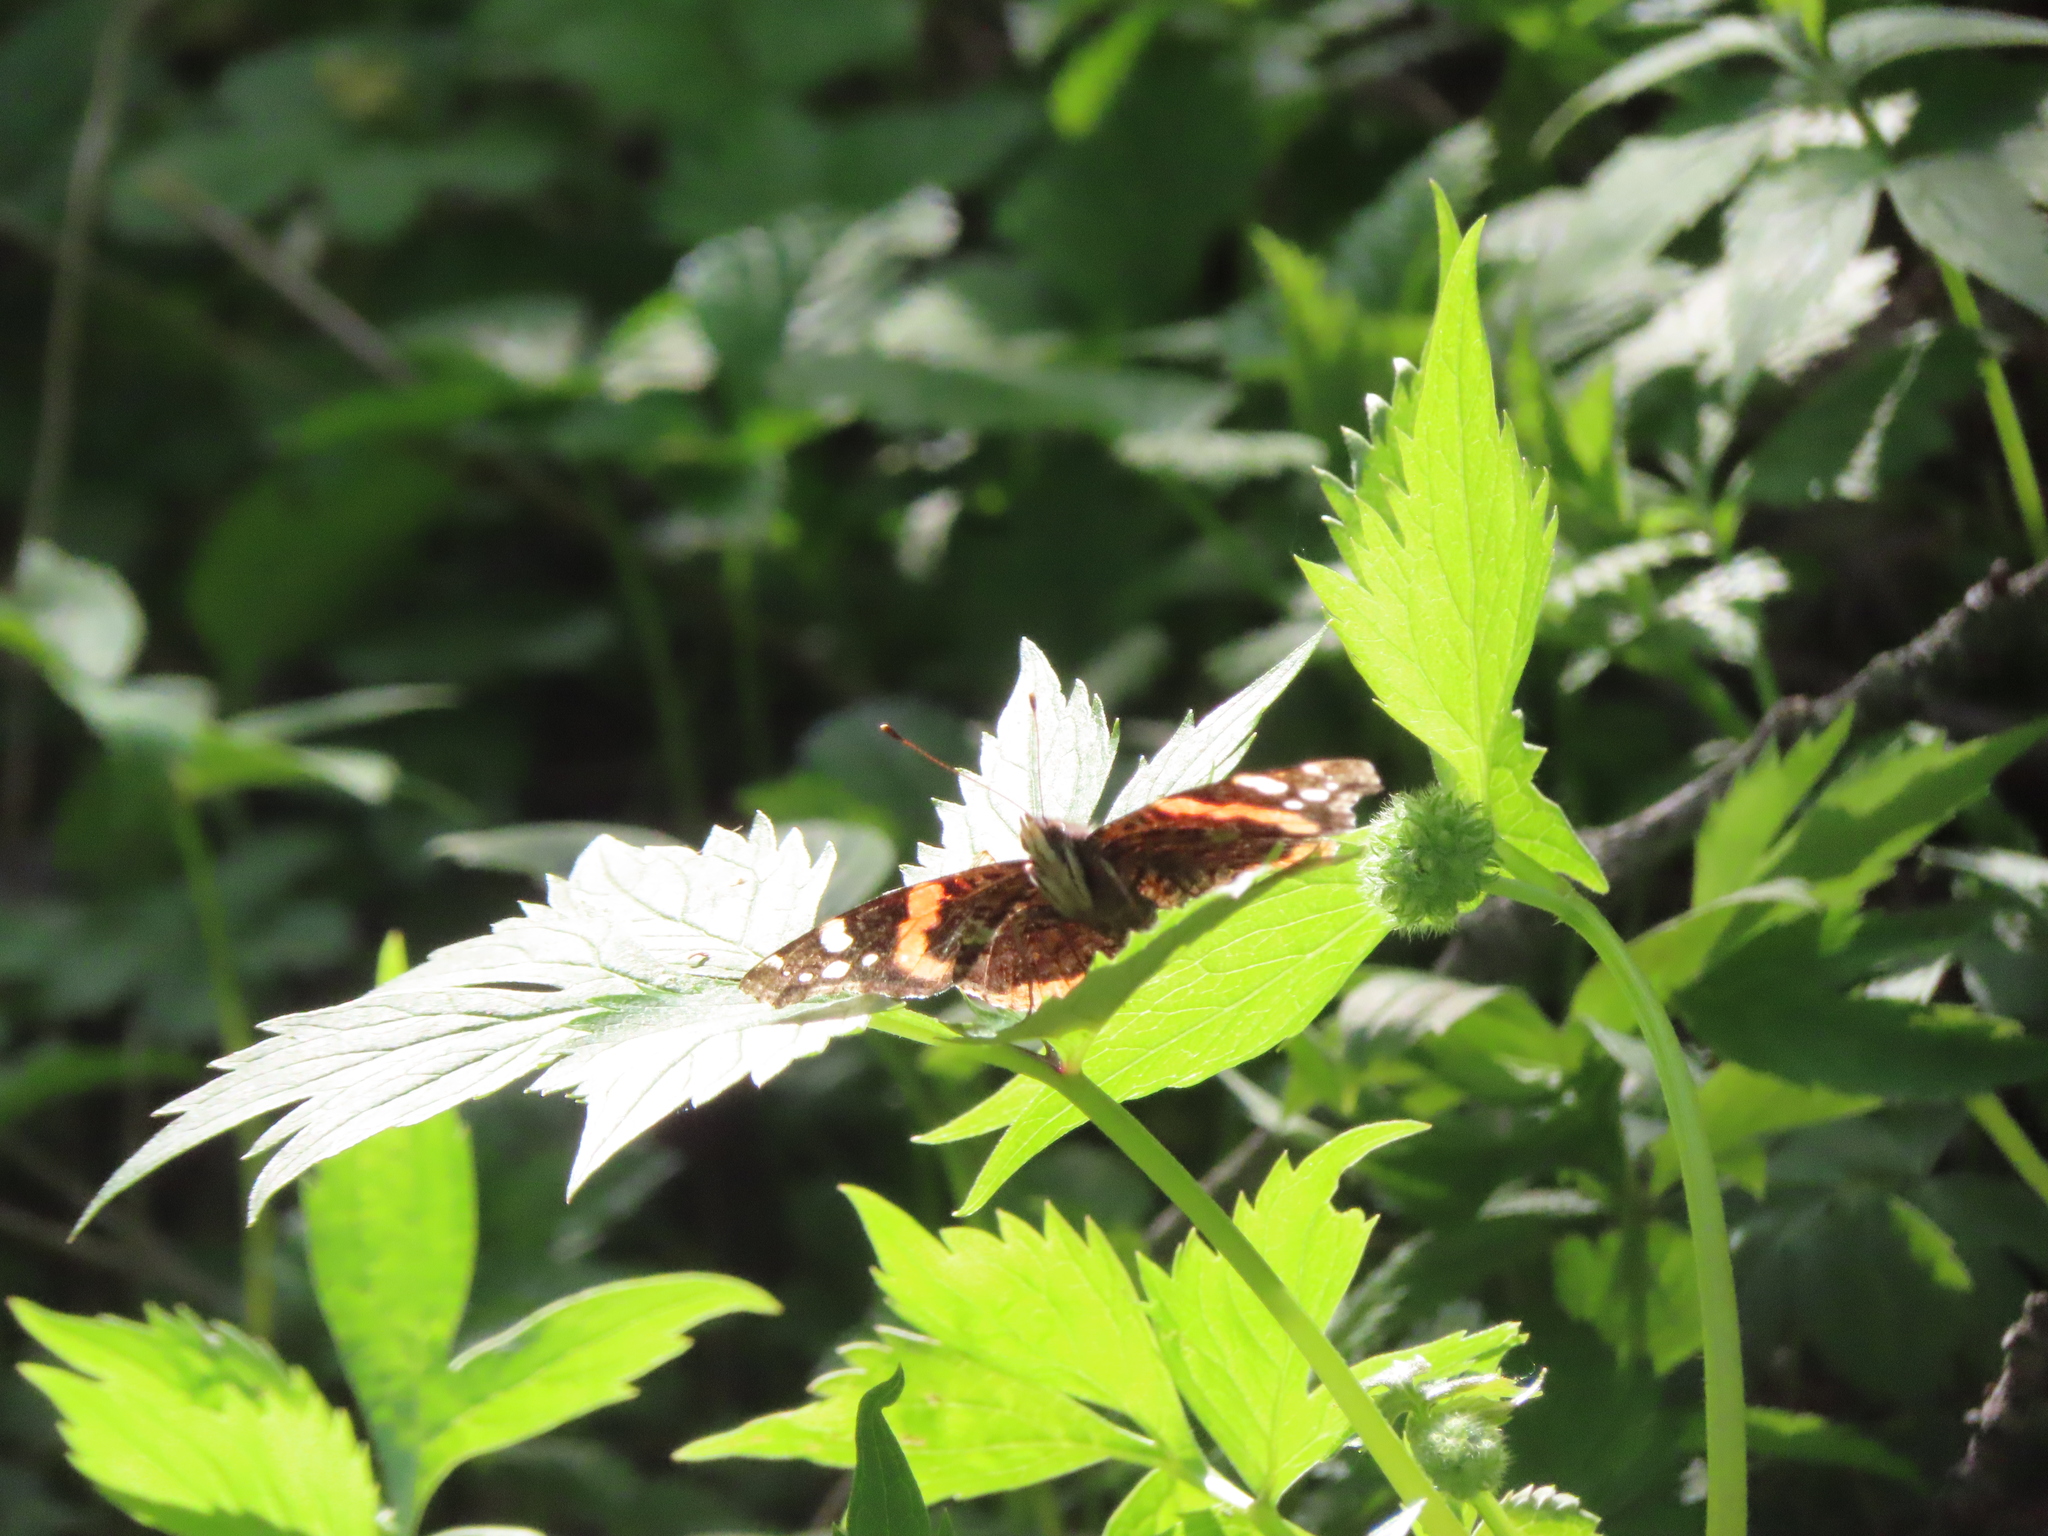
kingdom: Animalia
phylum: Arthropoda
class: Insecta
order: Lepidoptera
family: Nymphalidae
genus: Vanessa
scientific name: Vanessa atalanta
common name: Red admiral
